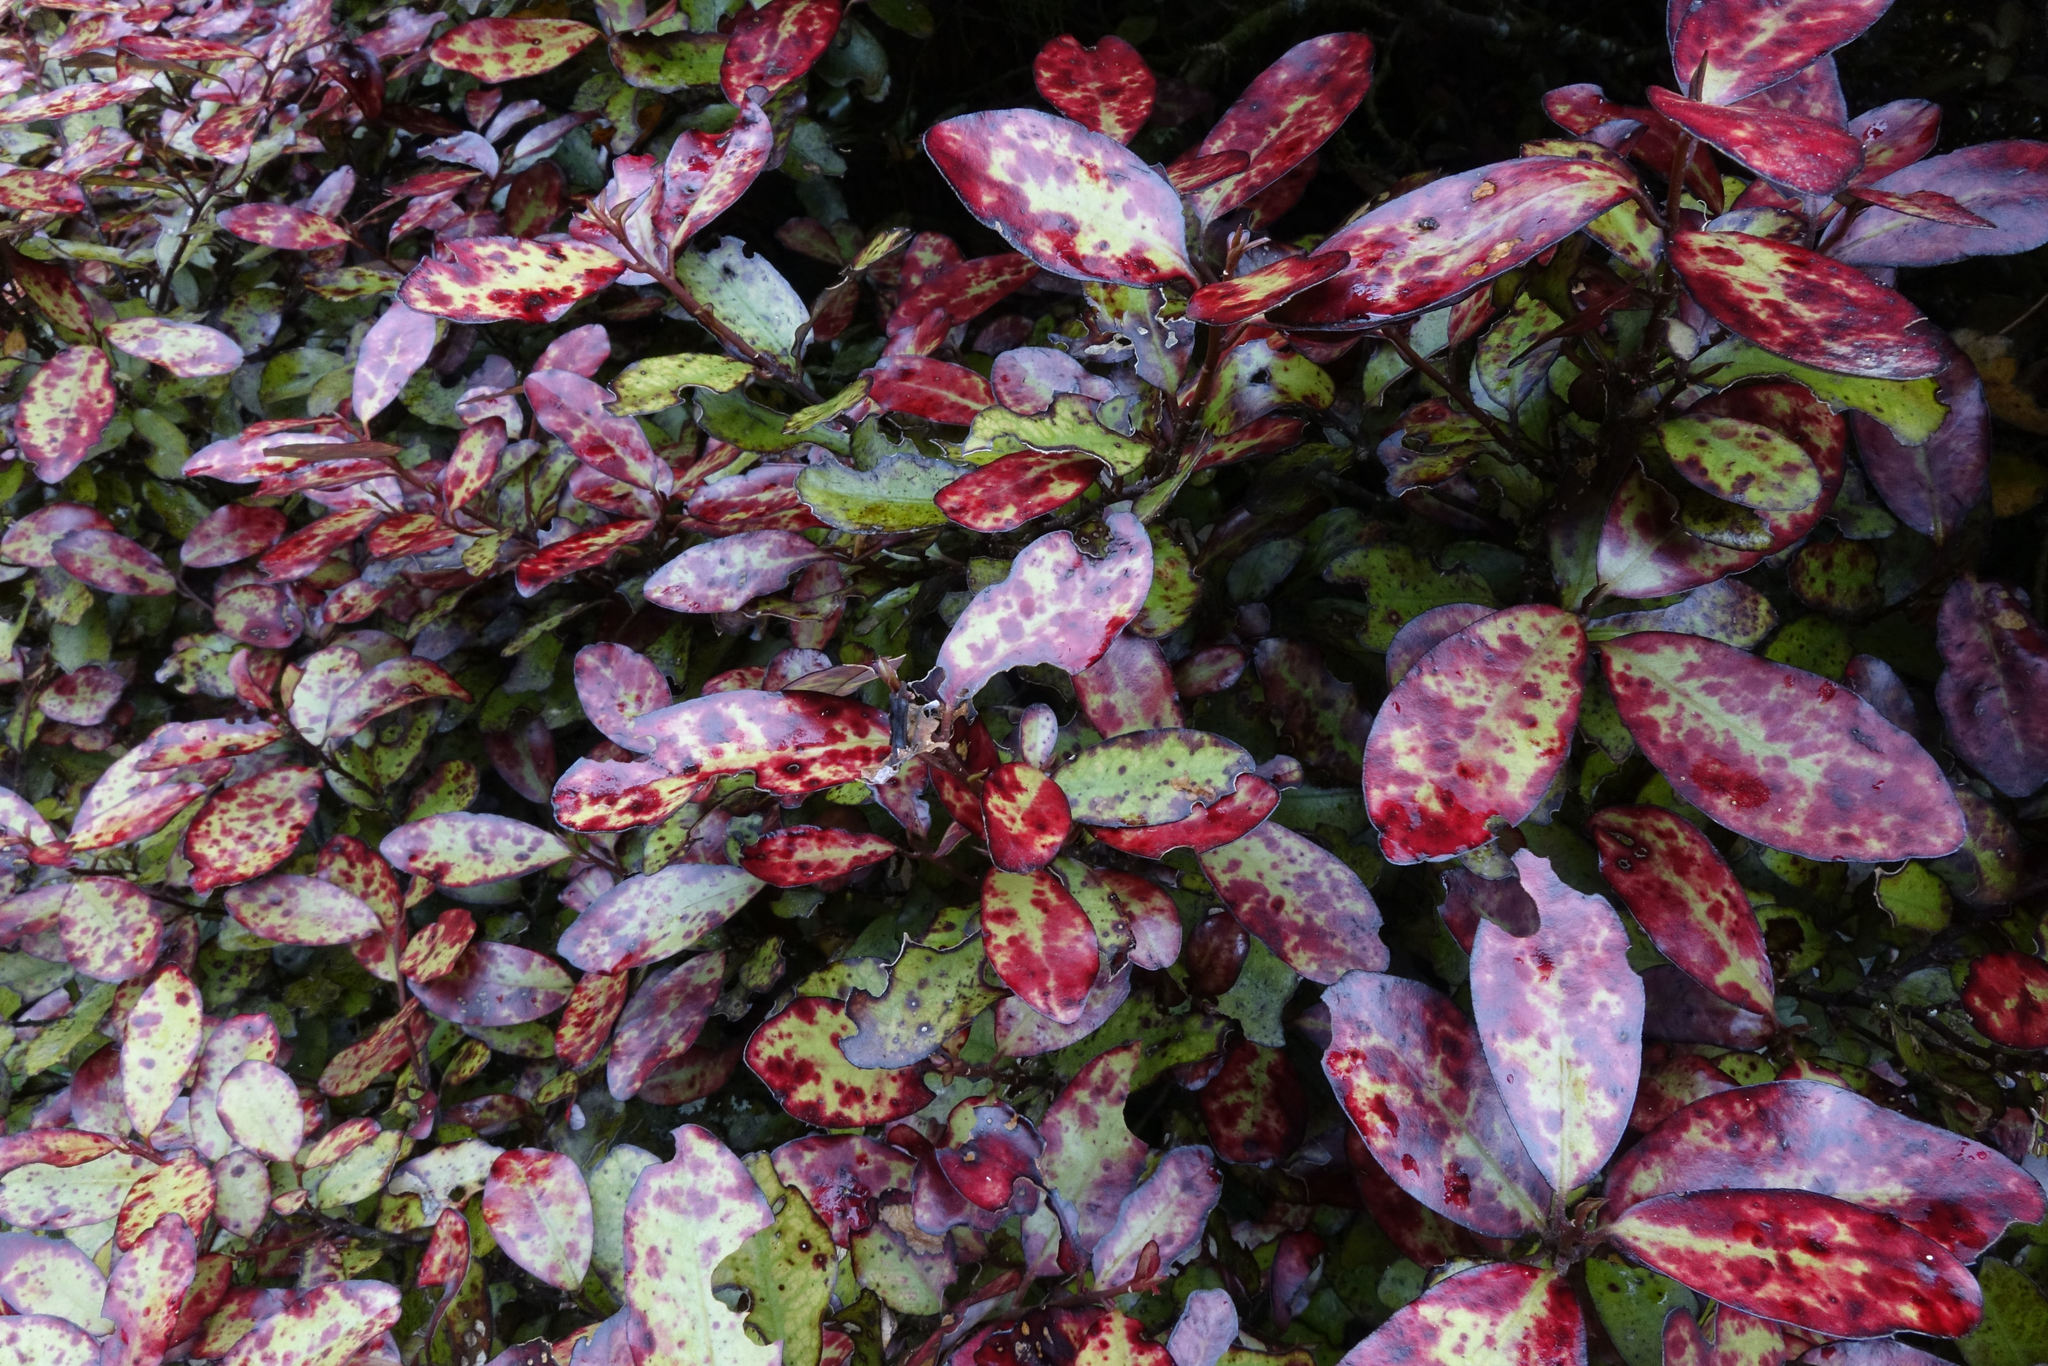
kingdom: Plantae
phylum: Tracheophyta
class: Magnoliopsida
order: Canellales
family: Winteraceae
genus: Pseudowintera
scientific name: Pseudowintera colorata
